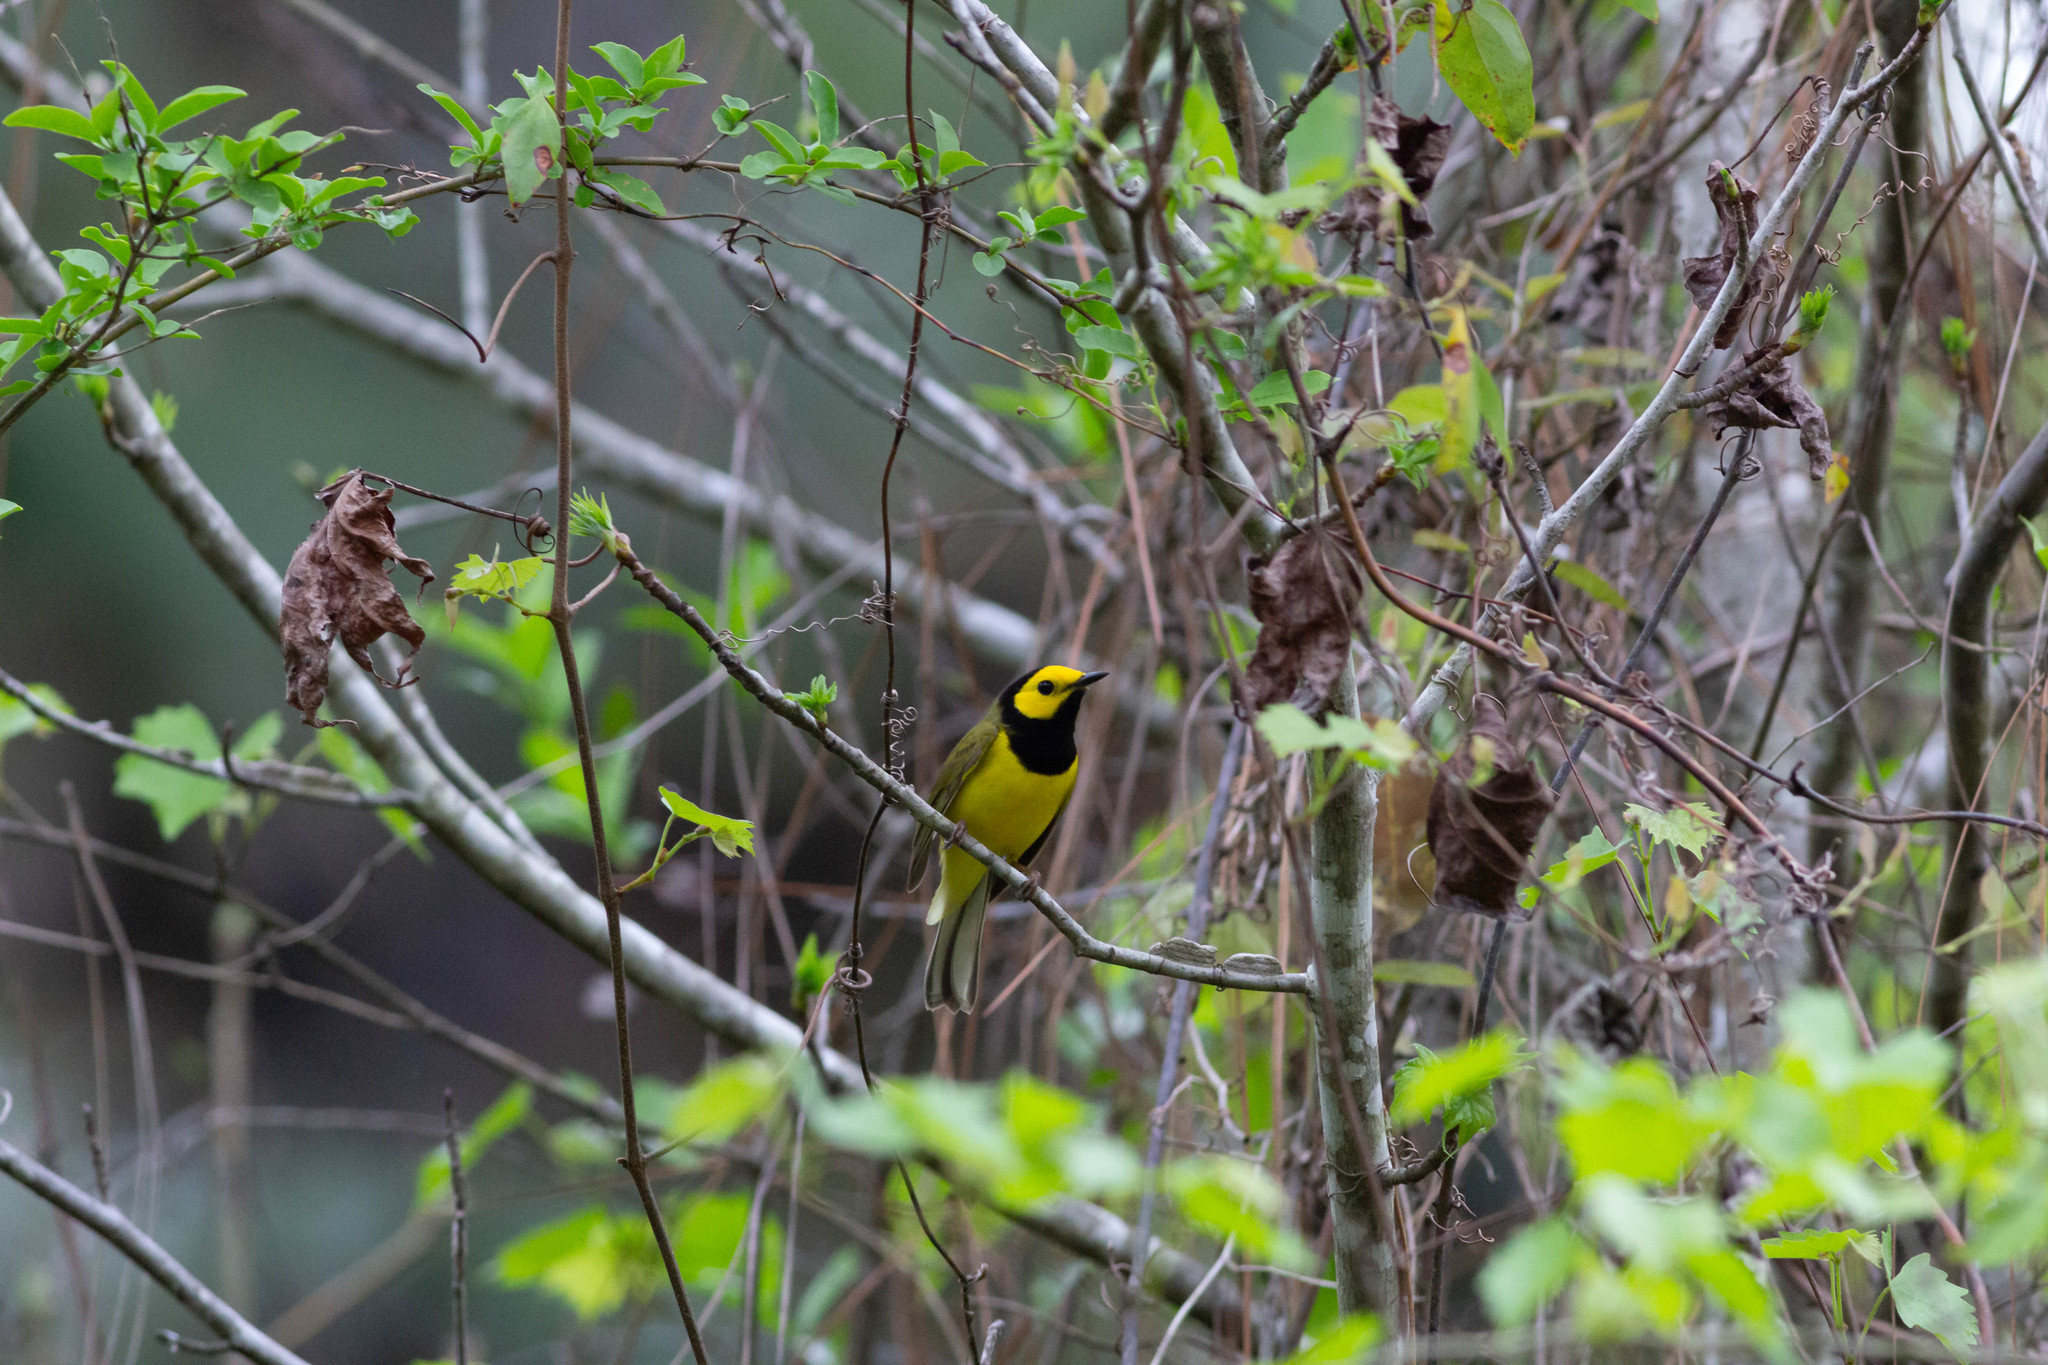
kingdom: Animalia
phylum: Chordata
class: Aves
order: Passeriformes
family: Parulidae
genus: Setophaga
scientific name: Setophaga citrina
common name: Hooded warbler
